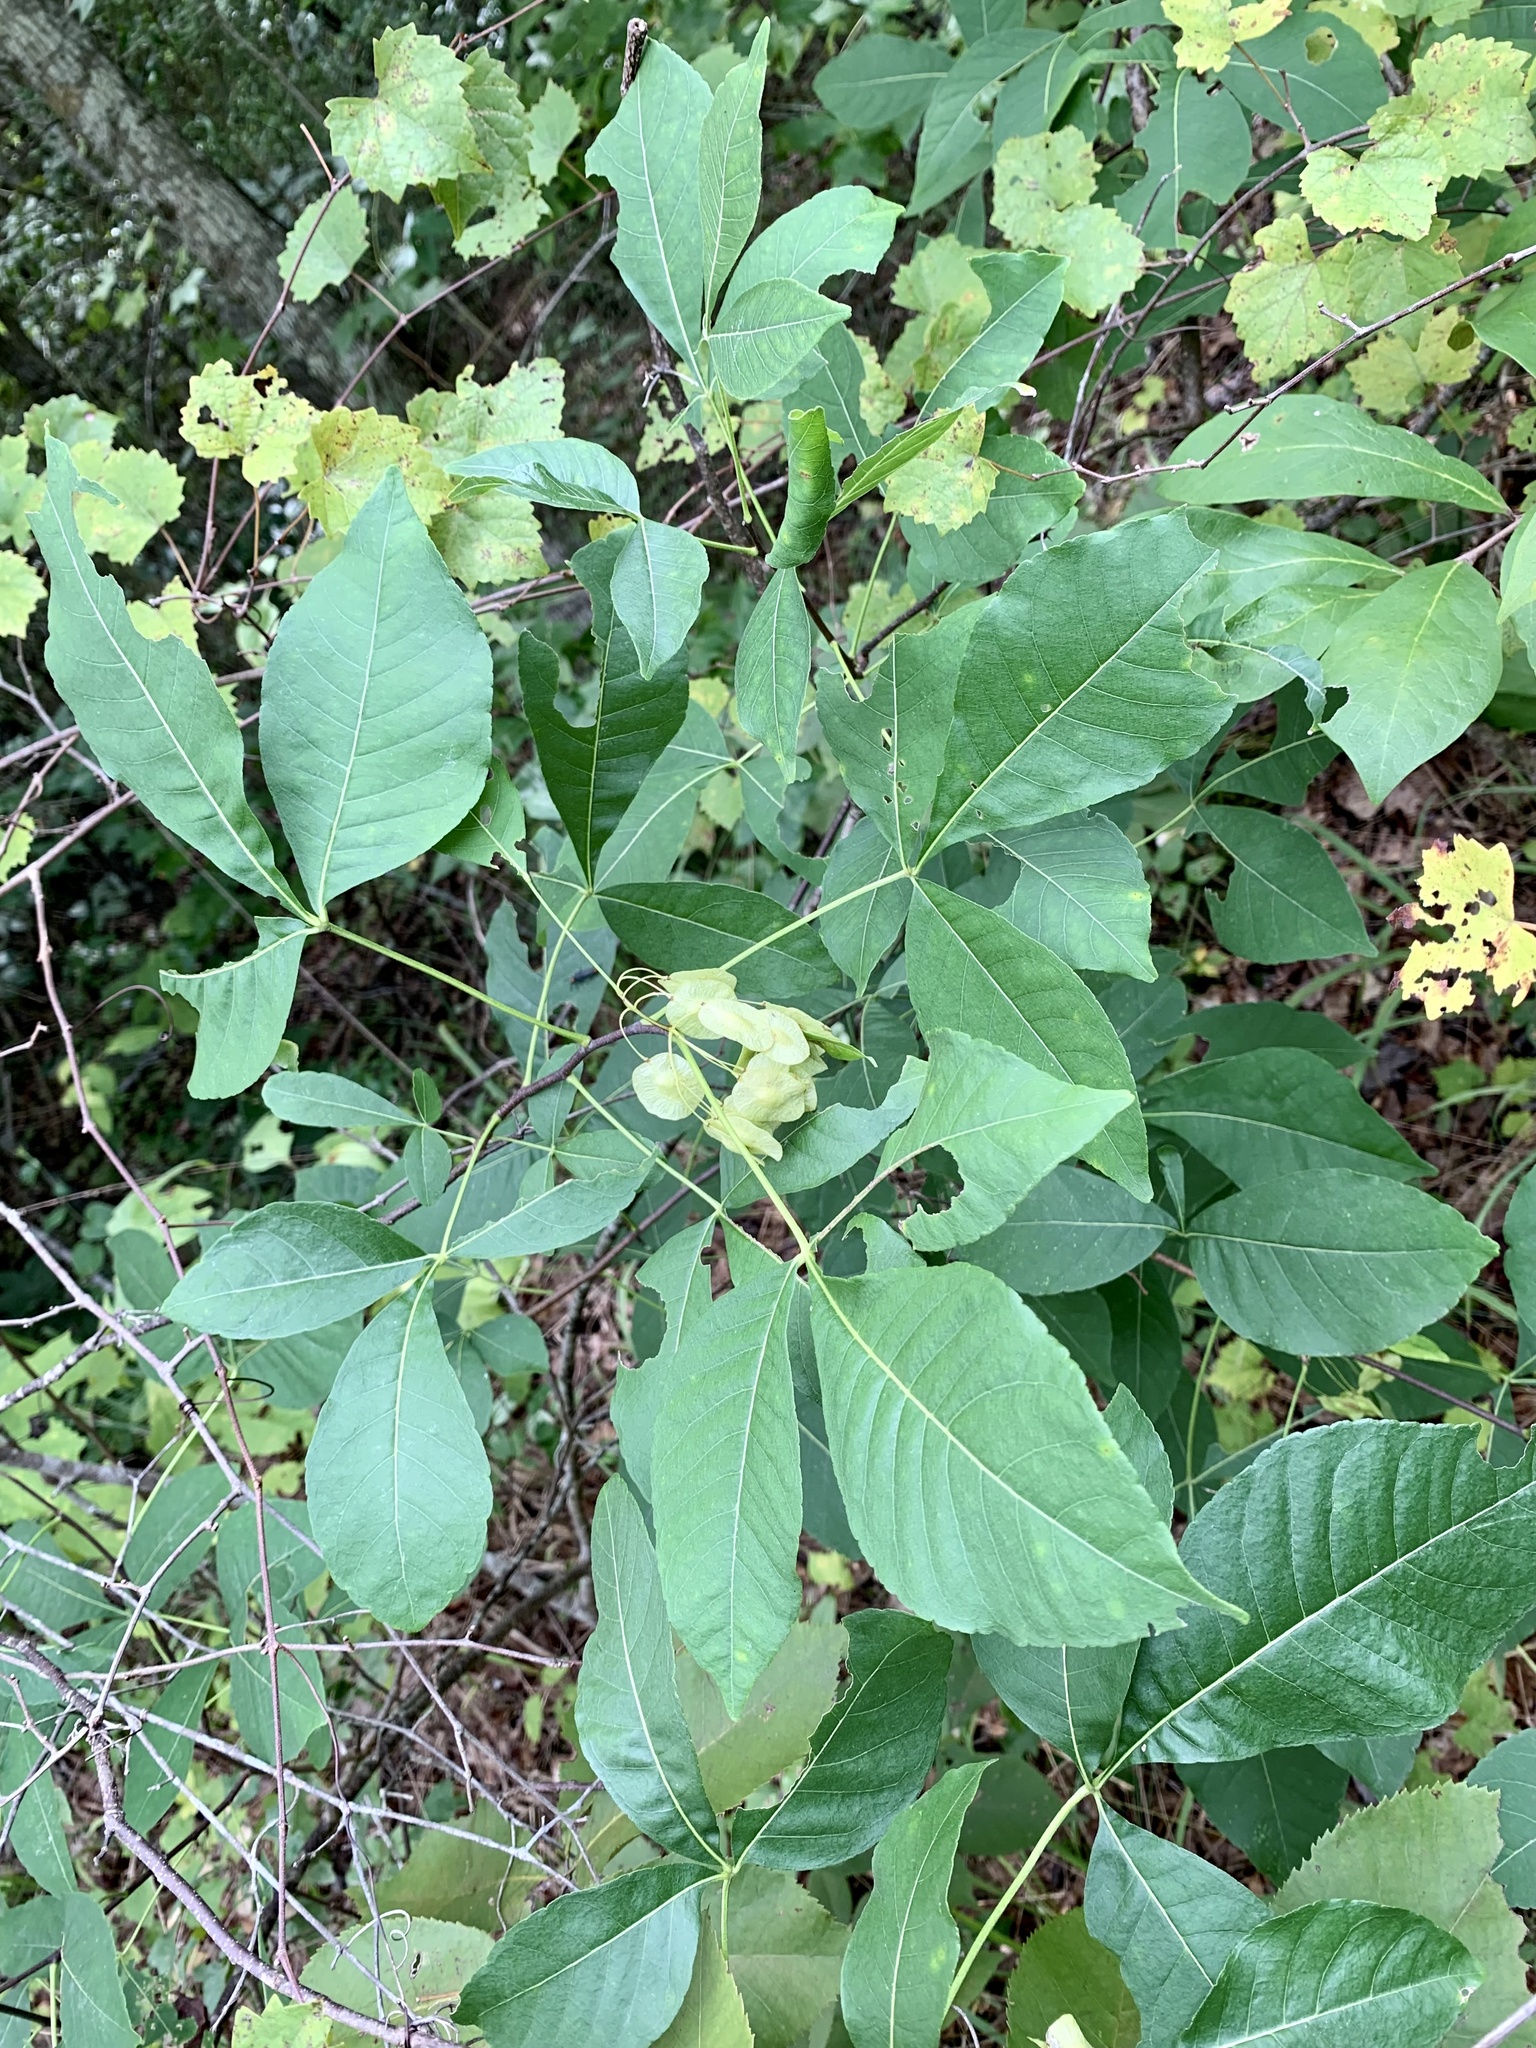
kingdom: Plantae
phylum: Tracheophyta
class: Magnoliopsida
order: Sapindales
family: Rutaceae
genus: Ptelea
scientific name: Ptelea trifoliata
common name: Common hop-tree
